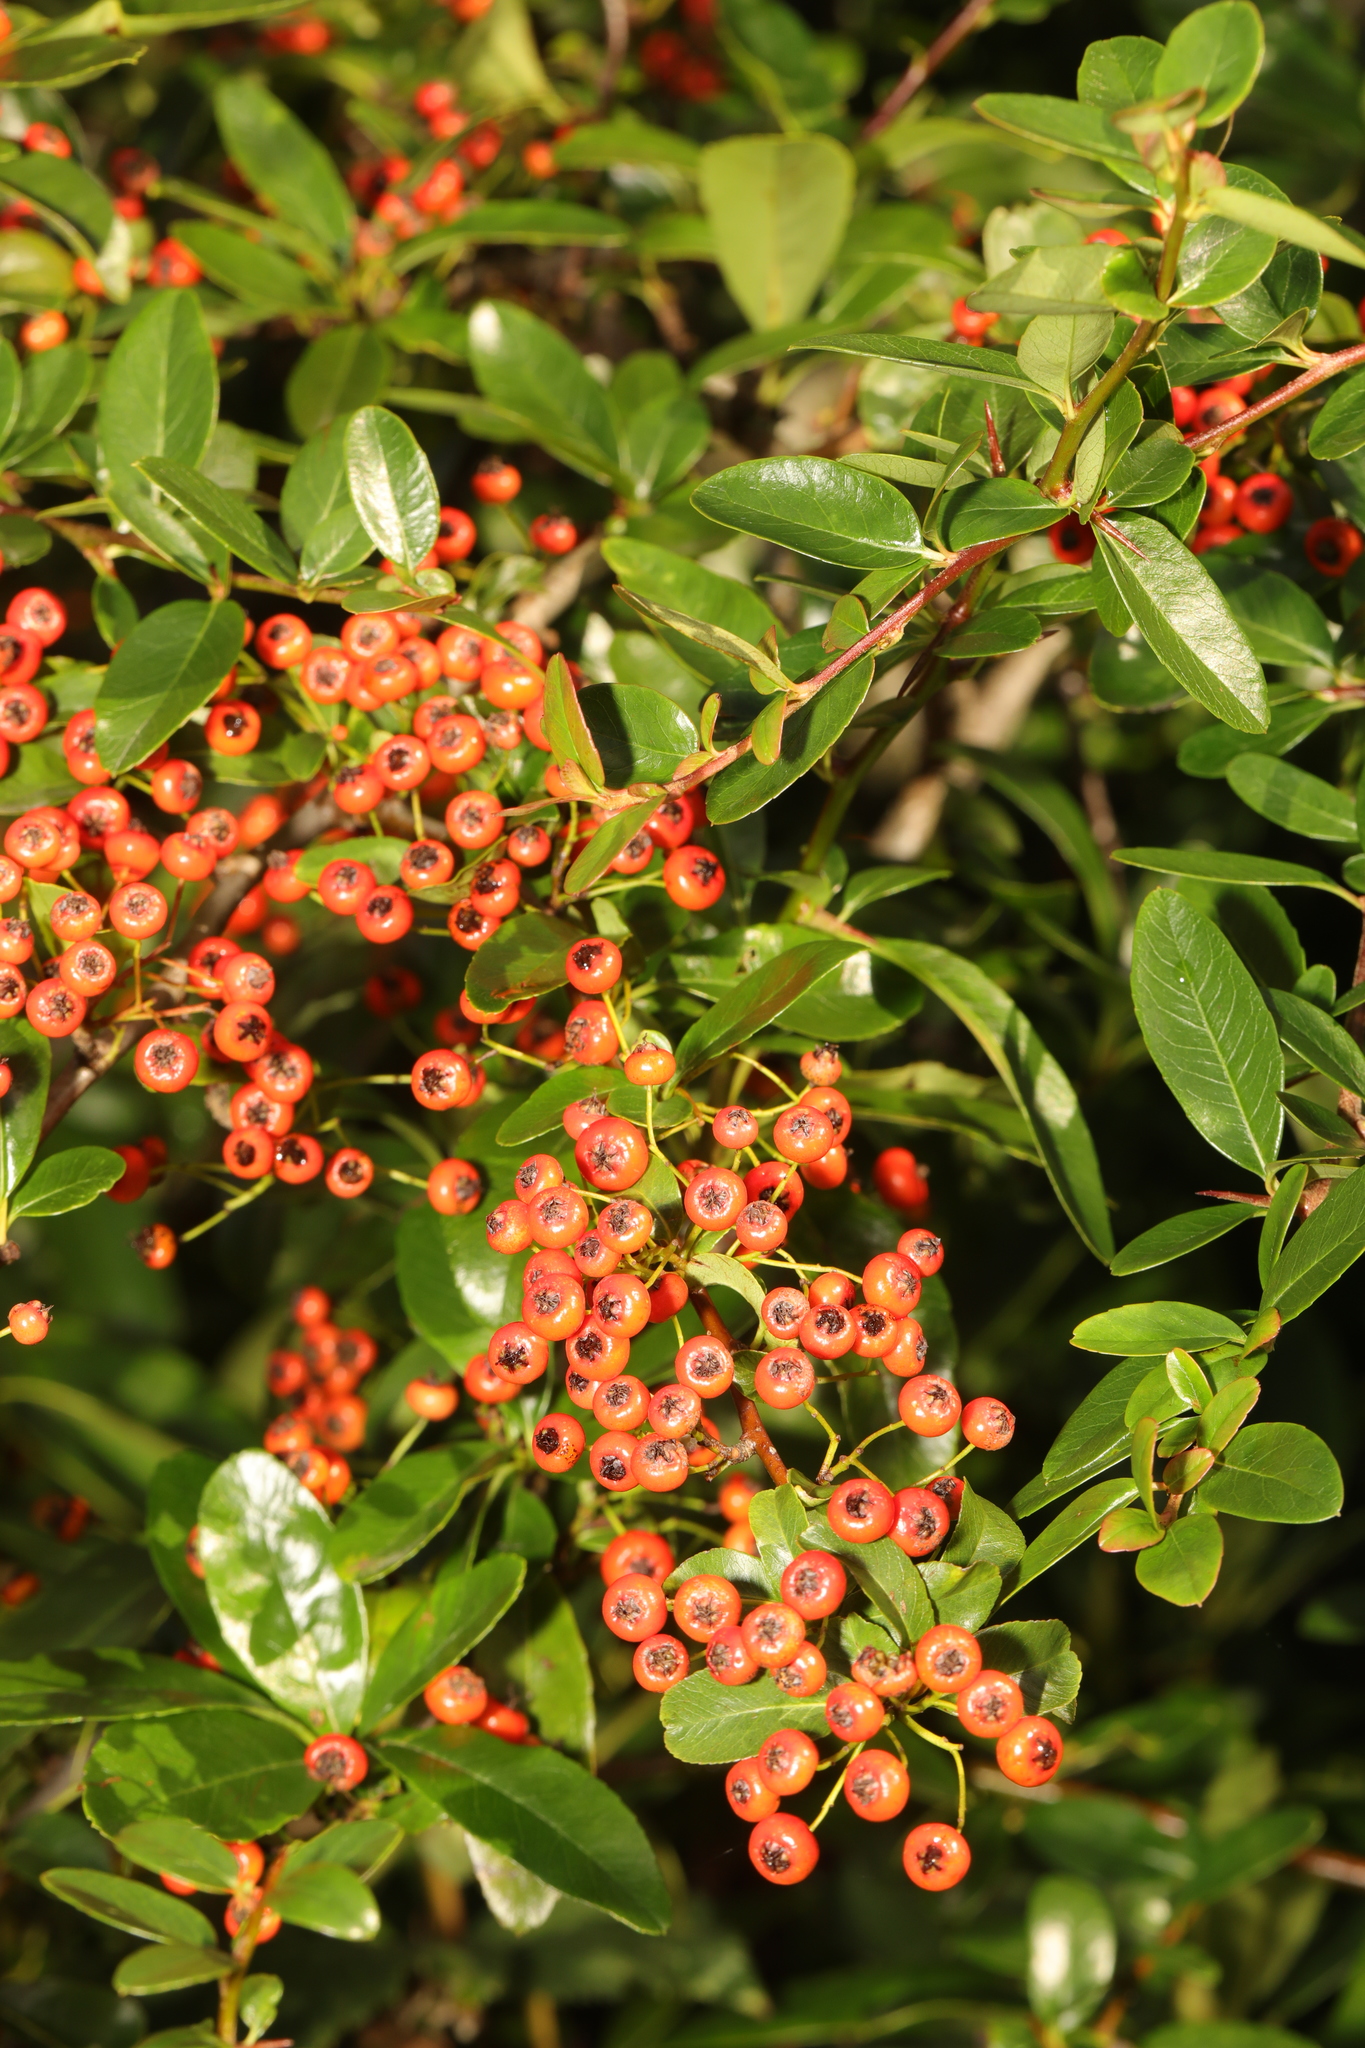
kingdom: Plantae
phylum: Tracheophyta
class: Magnoliopsida
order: Rosales
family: Rosaceae
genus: Pyracantha
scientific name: Pyracantha coccinea
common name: Firethorn
